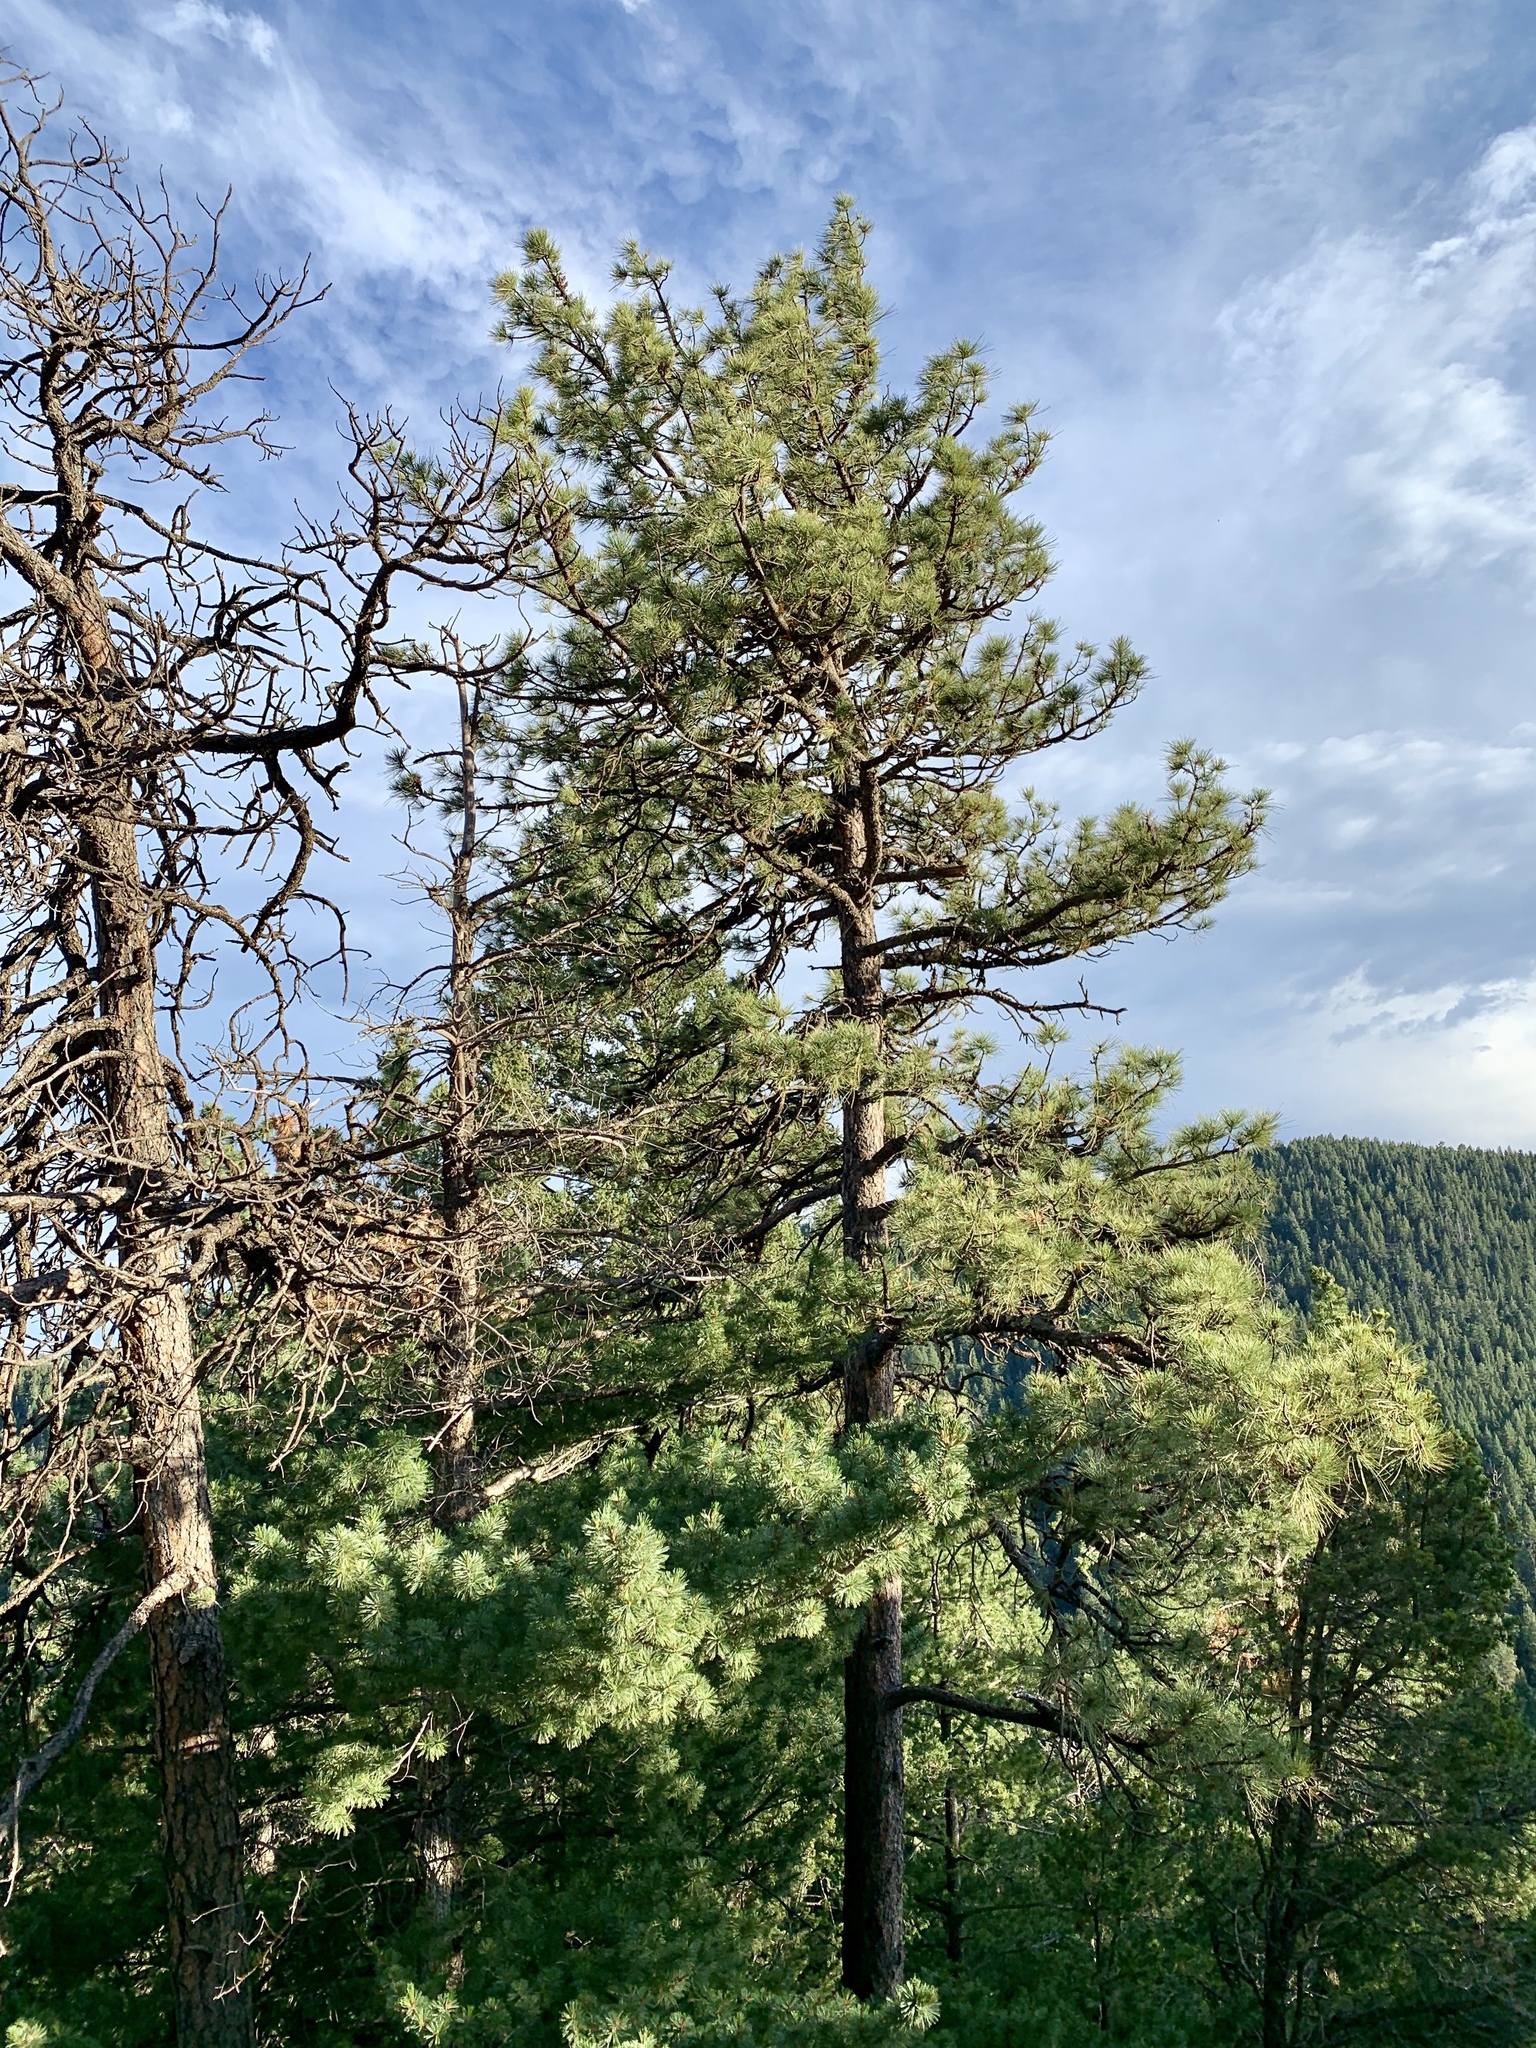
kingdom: Plantae
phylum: Tracheophyta
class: Pinopsida
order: Pinales
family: Pinaceae
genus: Pinus
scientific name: Pinus ponderosa
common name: Western yellow-pine
